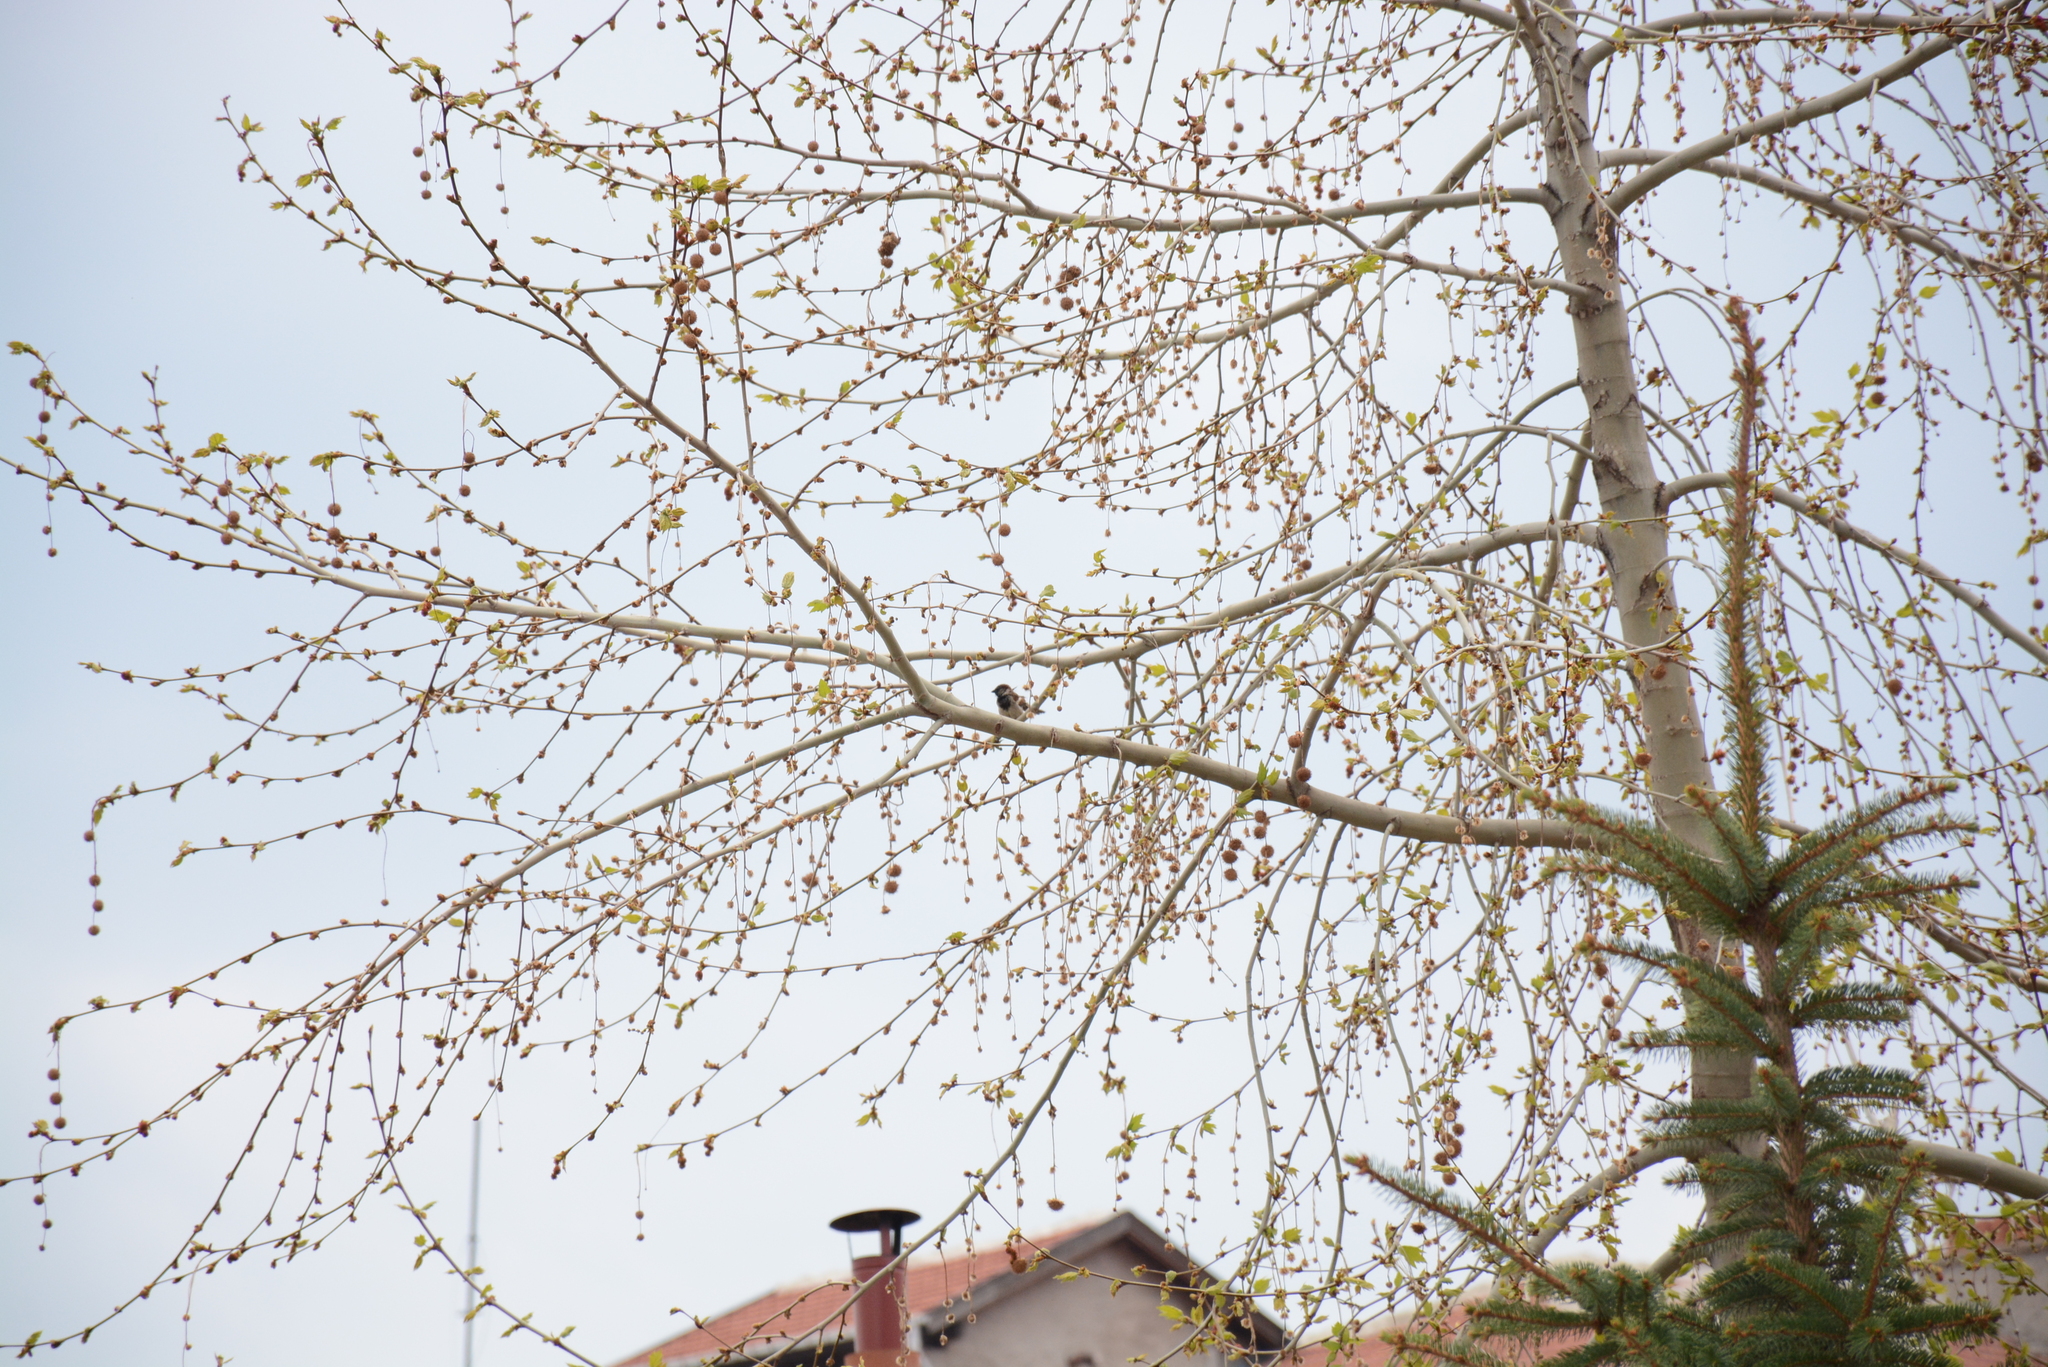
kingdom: Animalia
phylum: Chordata
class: Aves
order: Passeriformes
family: Passeridae
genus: Passer
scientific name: Passer domesticus
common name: House sparrow
